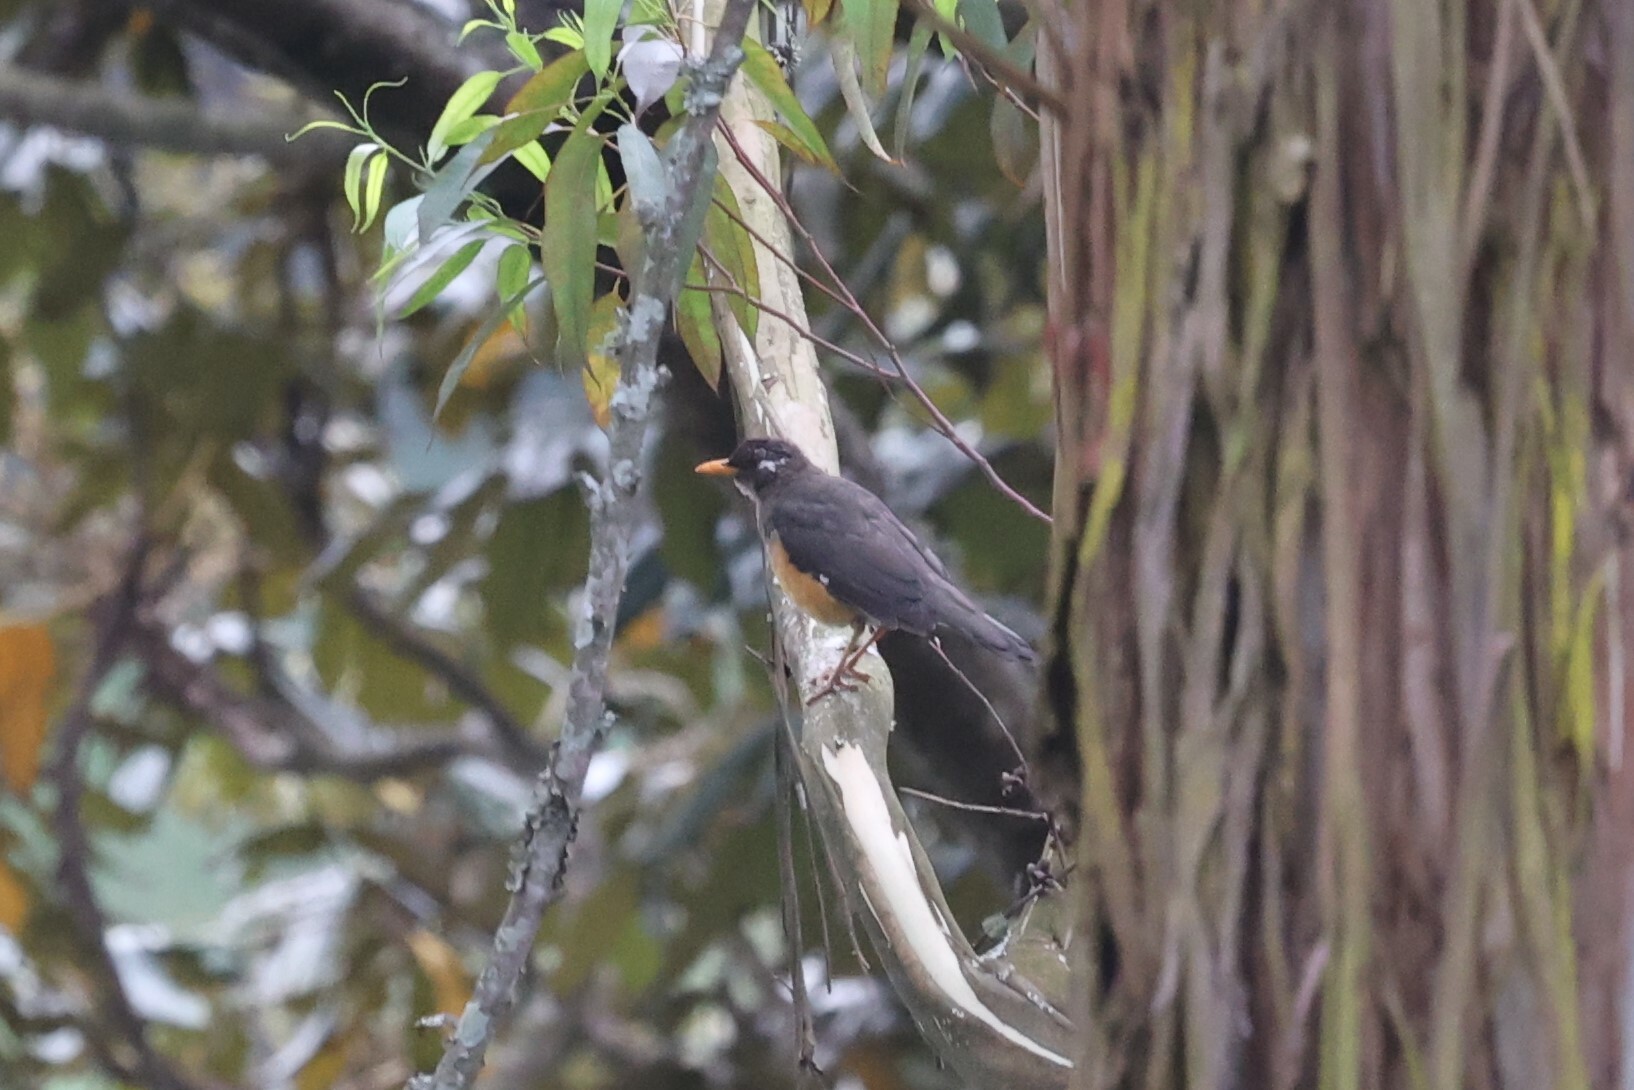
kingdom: Animalia
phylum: Chordata
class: Aves
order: Passeriformes
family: Turdidae
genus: Turdus
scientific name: Turdus abyssinicus
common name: Abyssinian thrush
